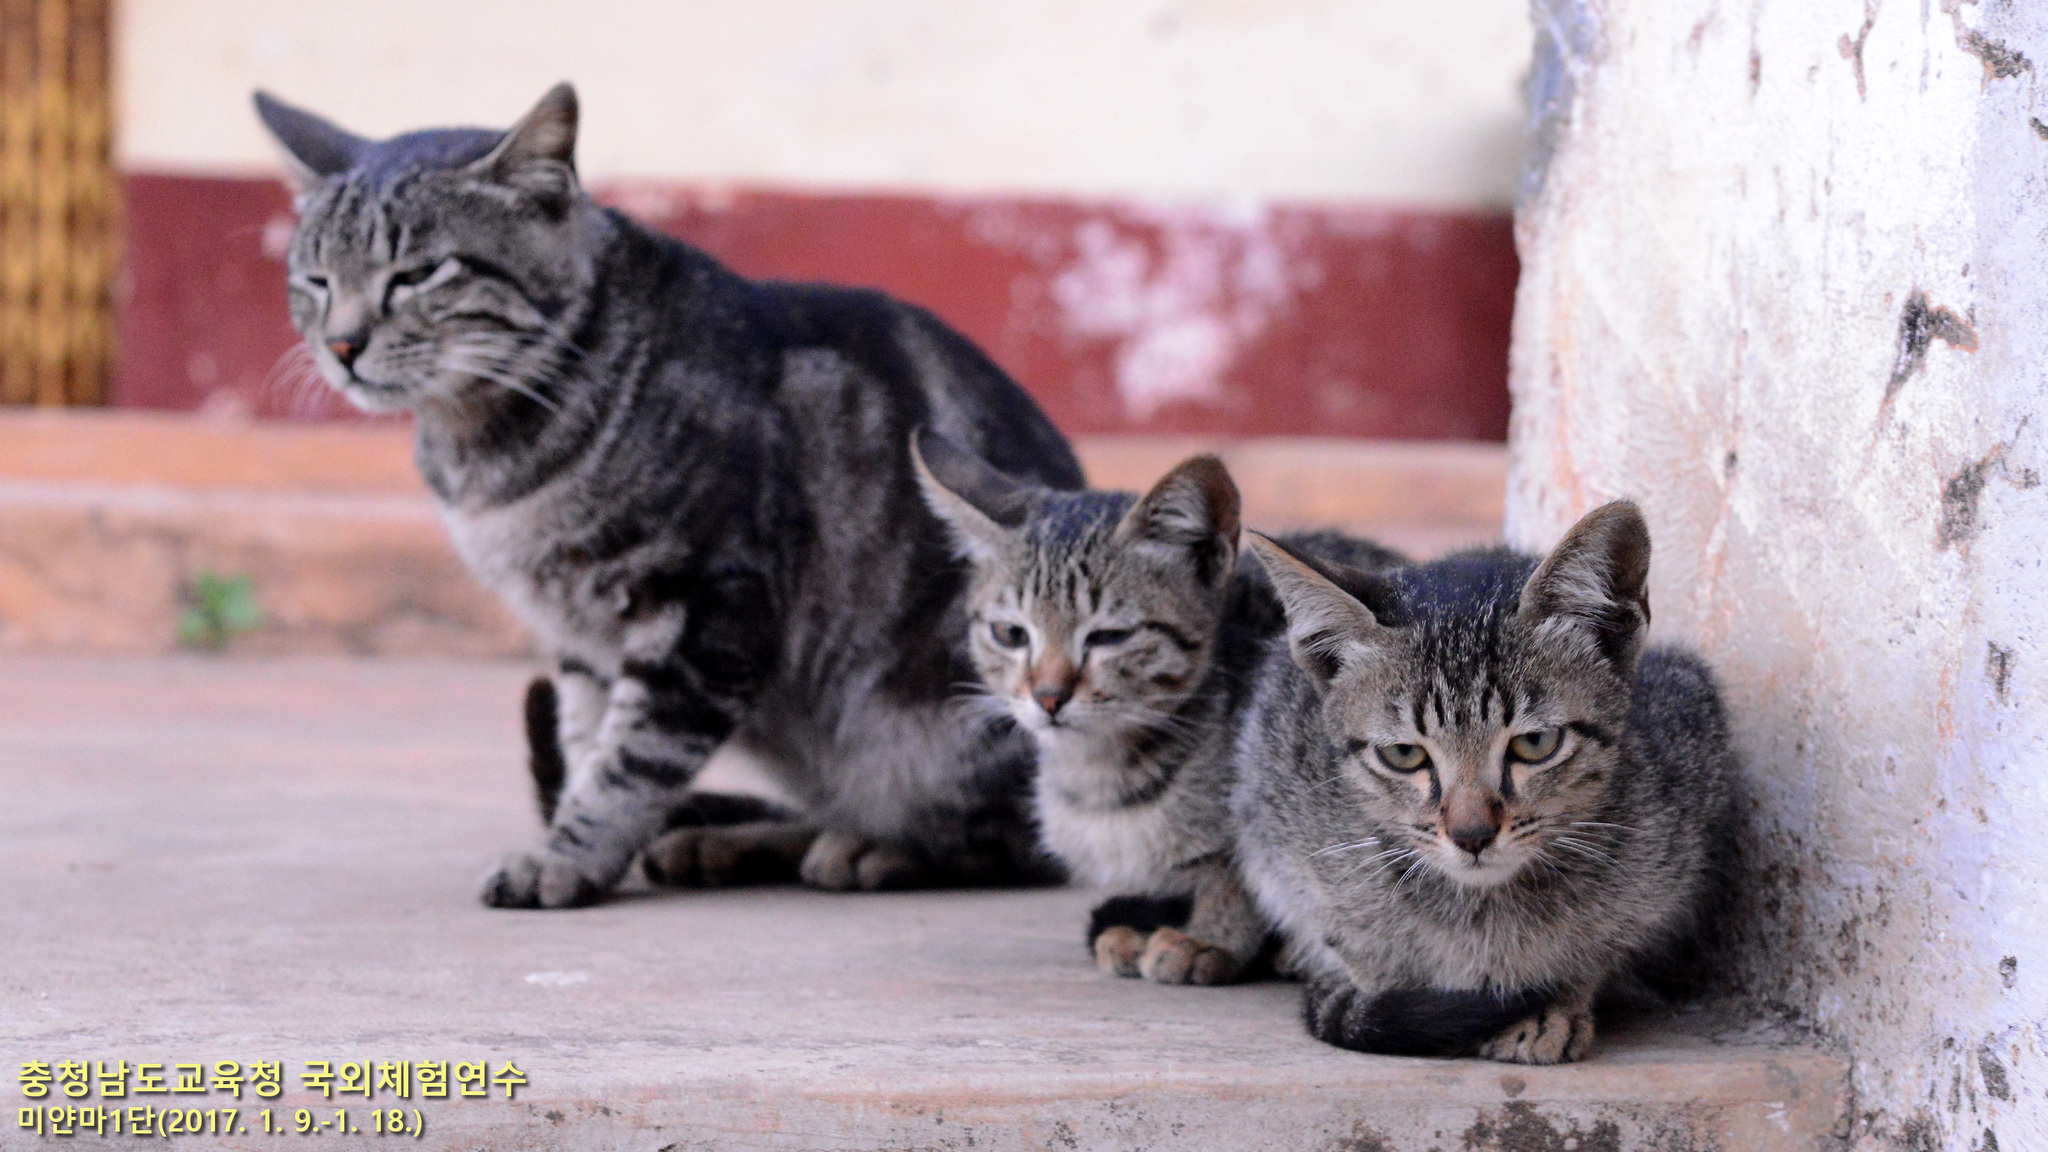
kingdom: Animalia
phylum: Chordata
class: Mammalia
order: Carnivora
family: Felidae
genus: Felis
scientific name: Felis catus
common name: Domestic cat
